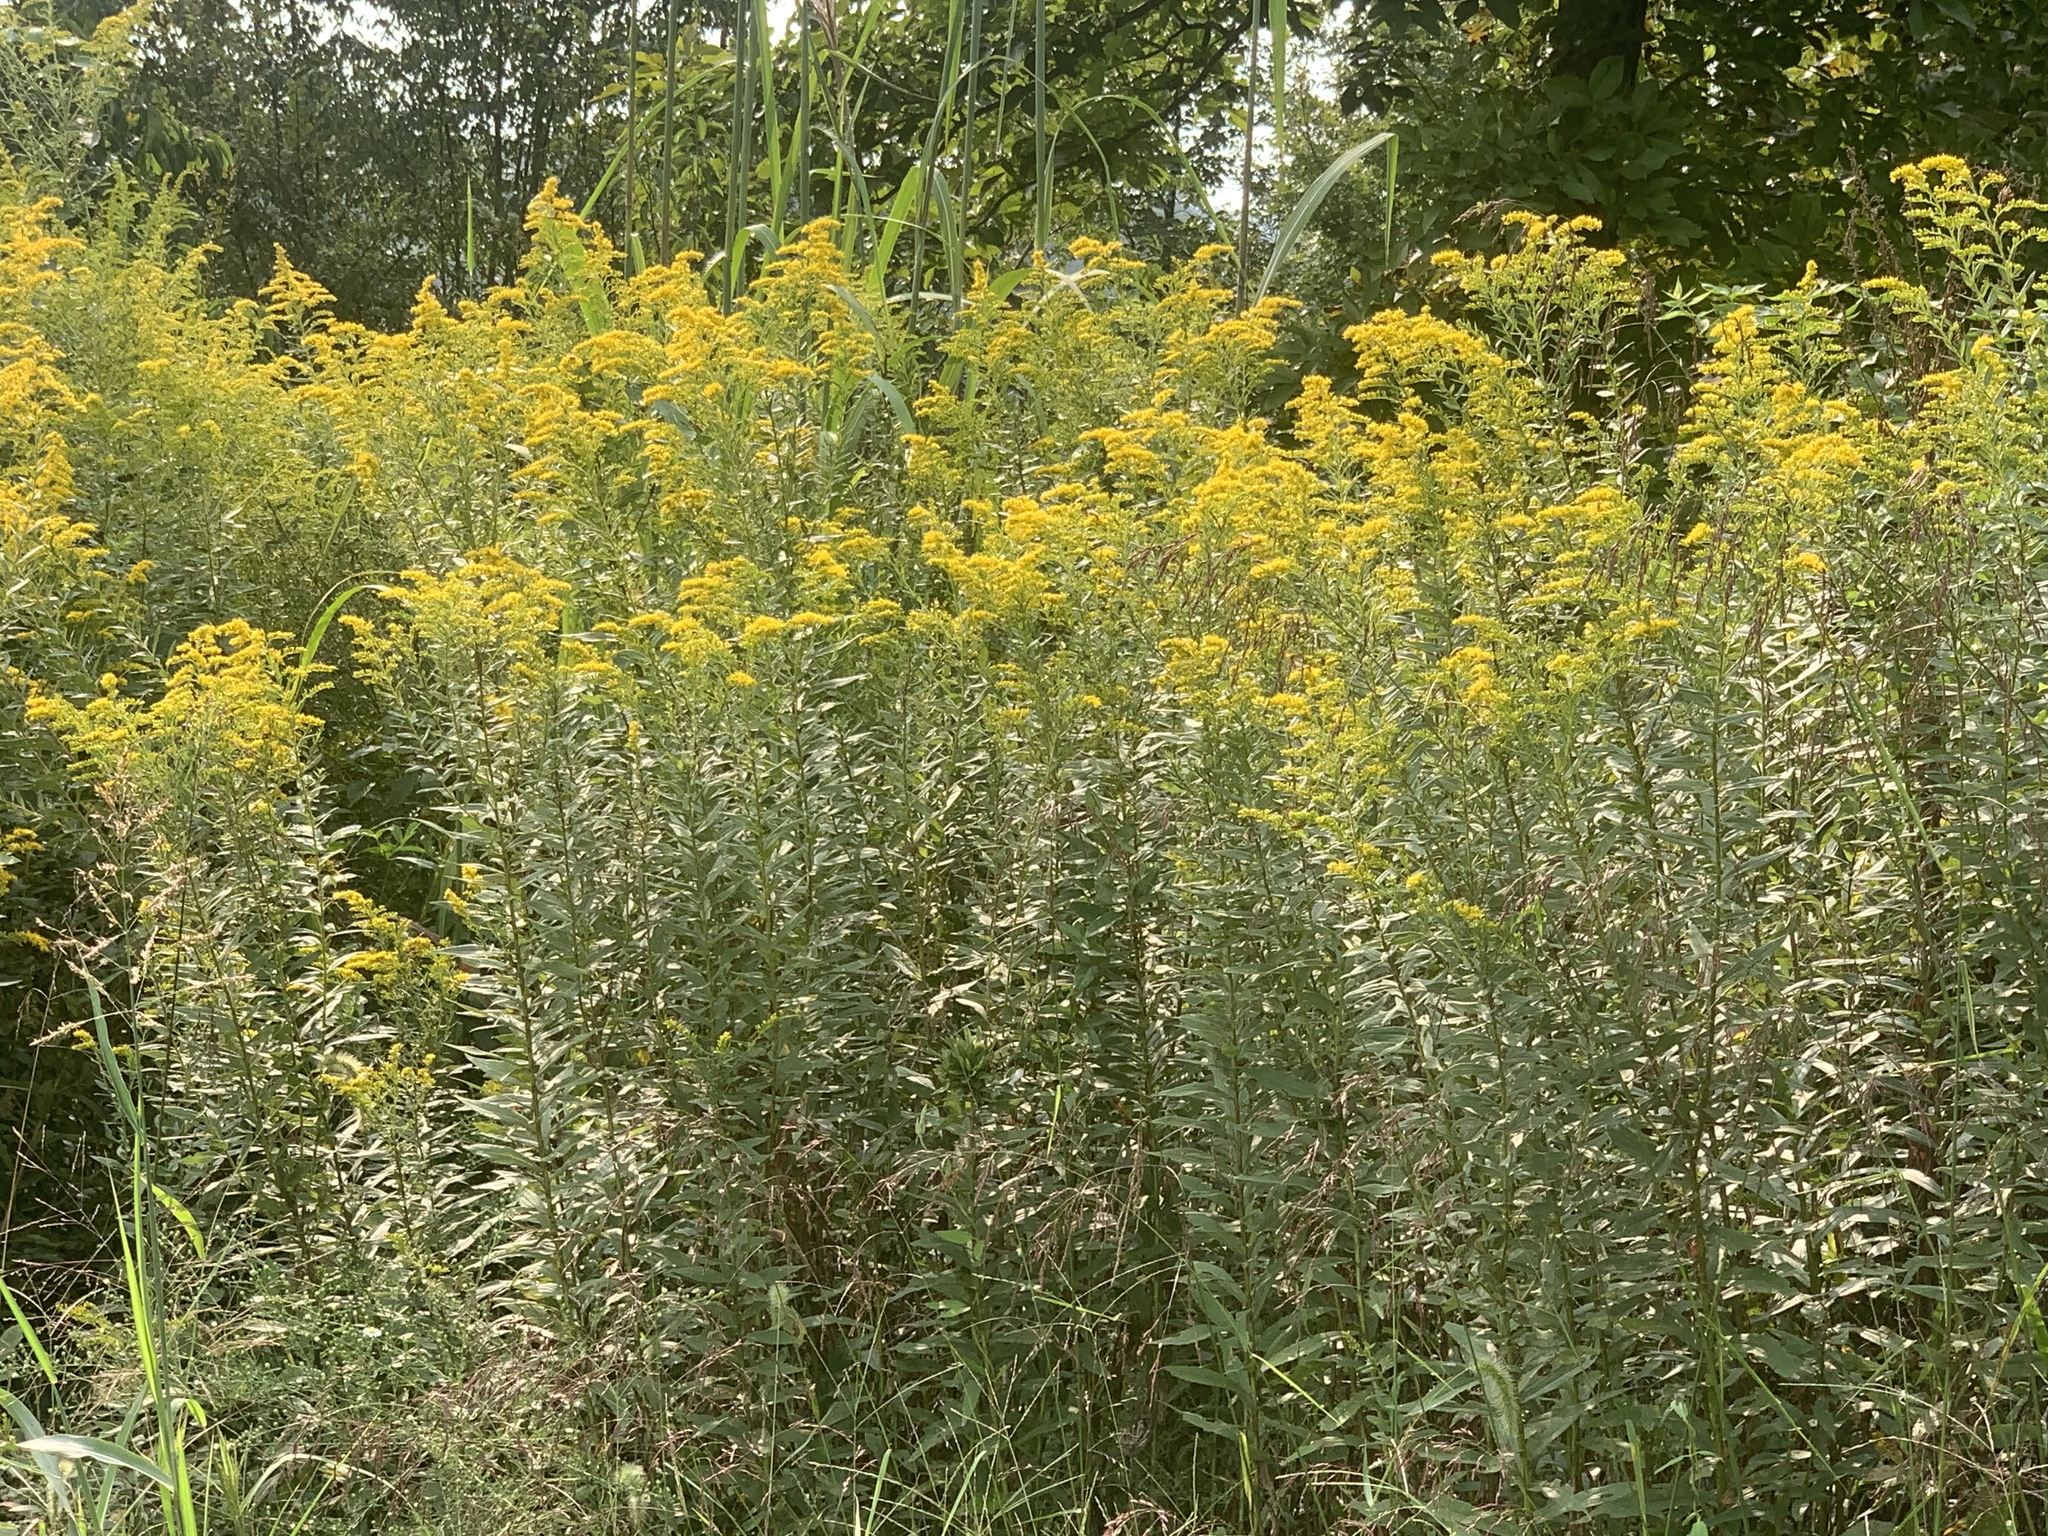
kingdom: Plantae
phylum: Tracheophyta
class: Magnoliopsida
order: Asterales
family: Asteraceae
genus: Solidago
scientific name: Solidago altissima
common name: Late goldenrod
